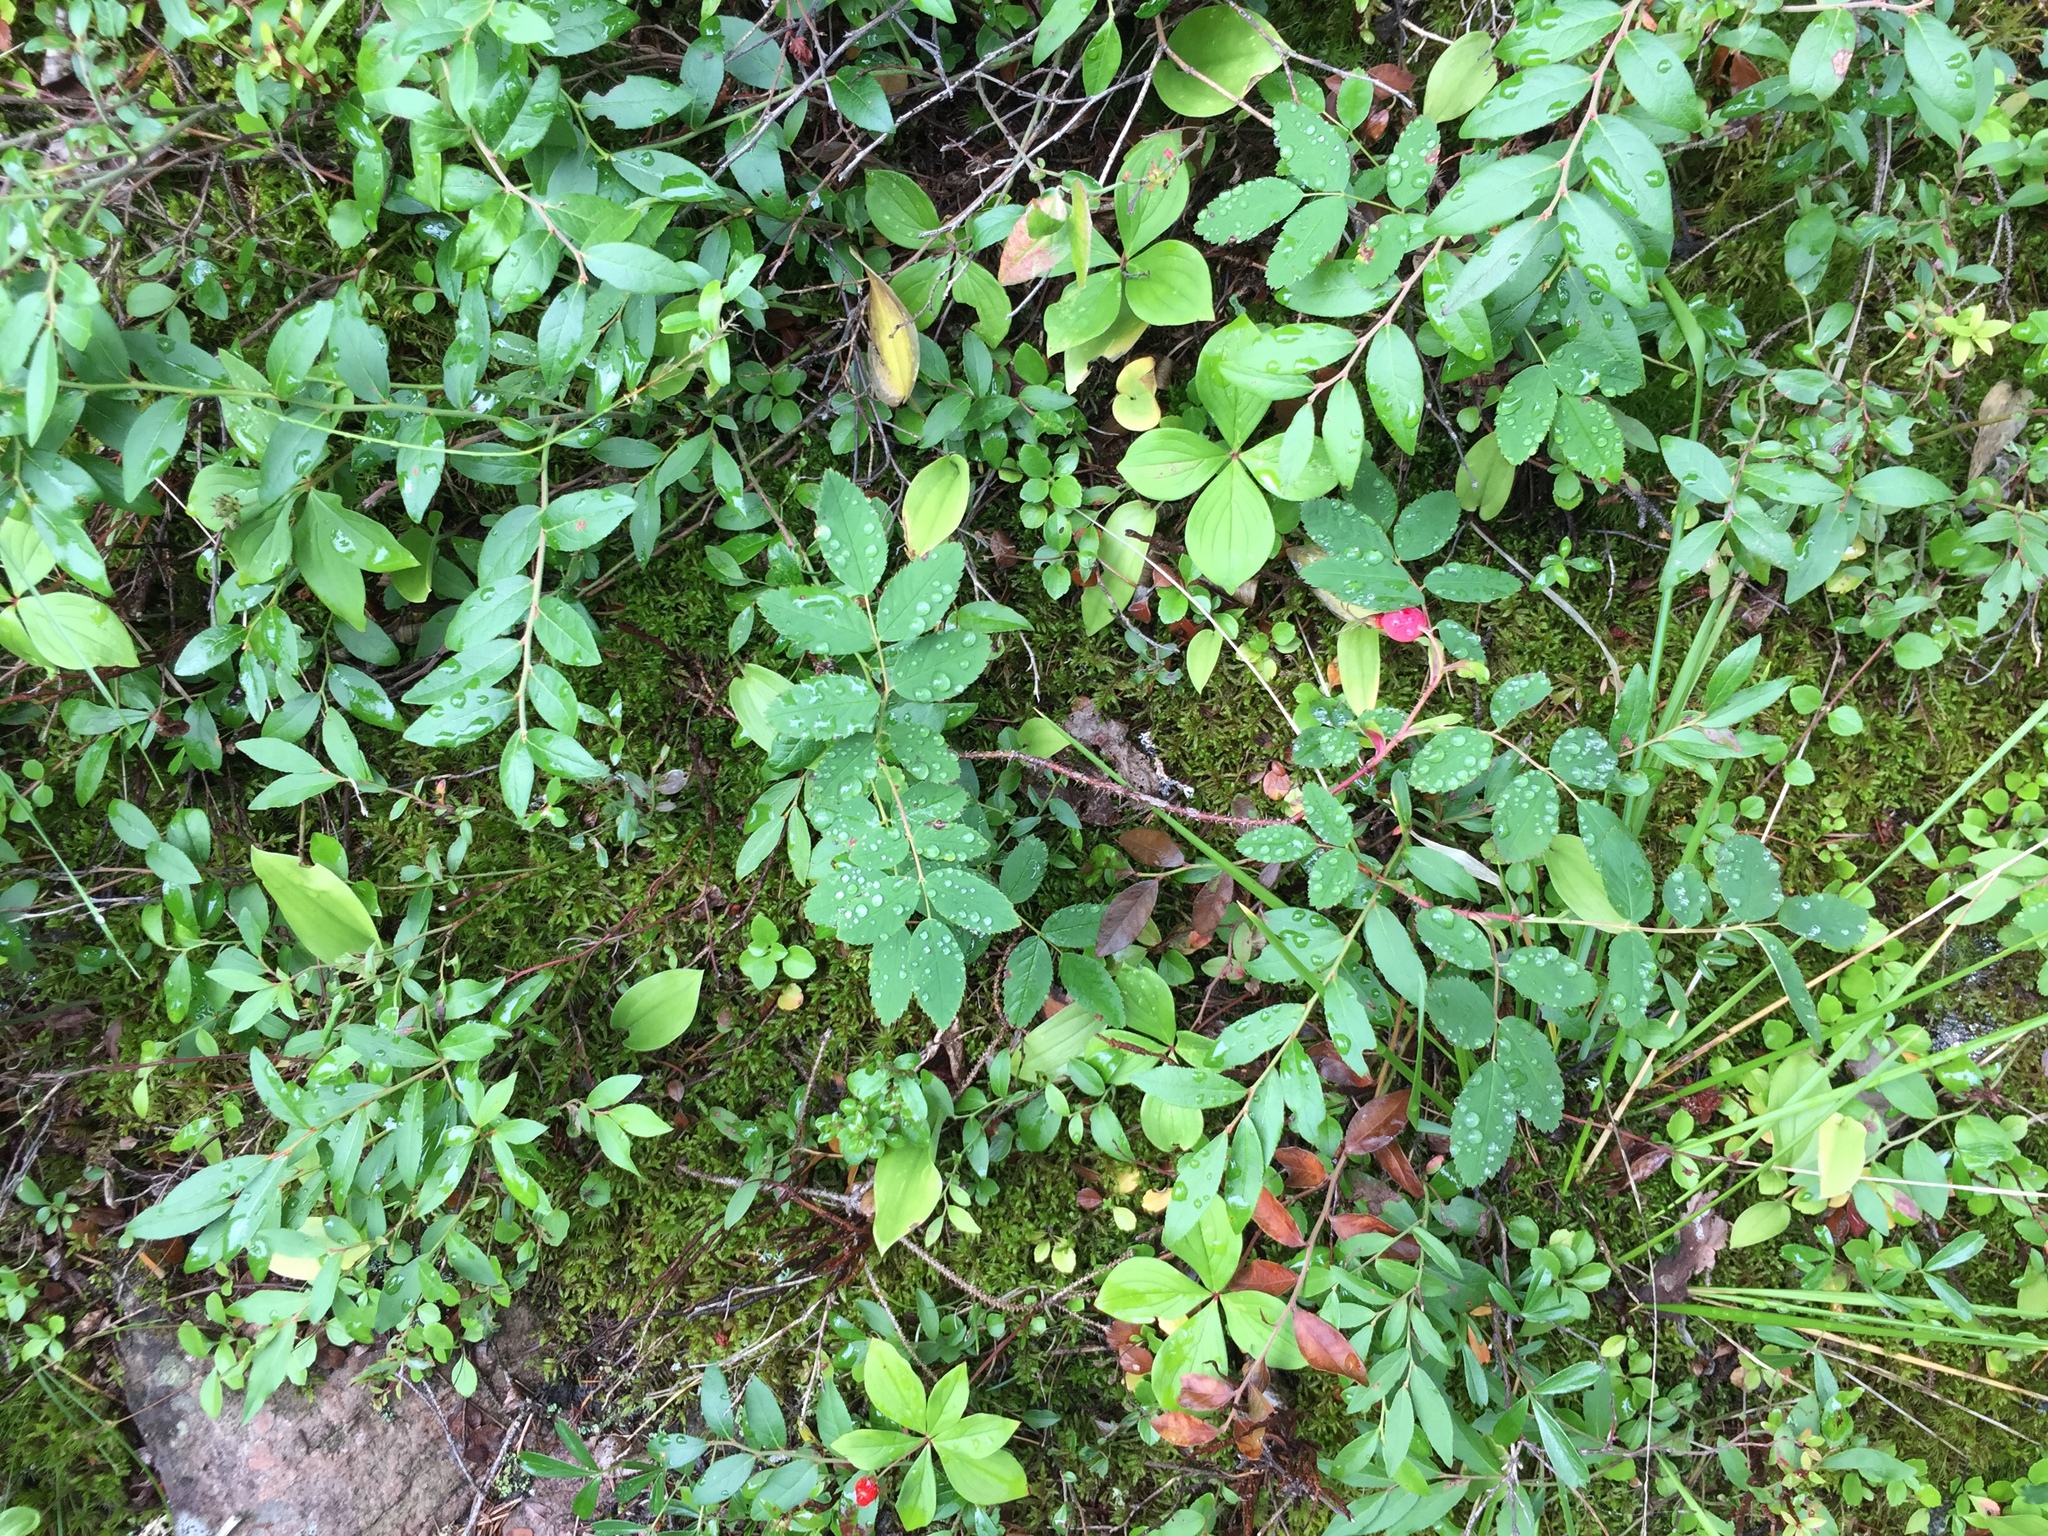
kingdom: Plantae
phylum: Tracheophyta
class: Magnoliopsida
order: Rosales
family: Rosaceae
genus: Rosa
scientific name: Rosa acicularis
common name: Prickly rose
